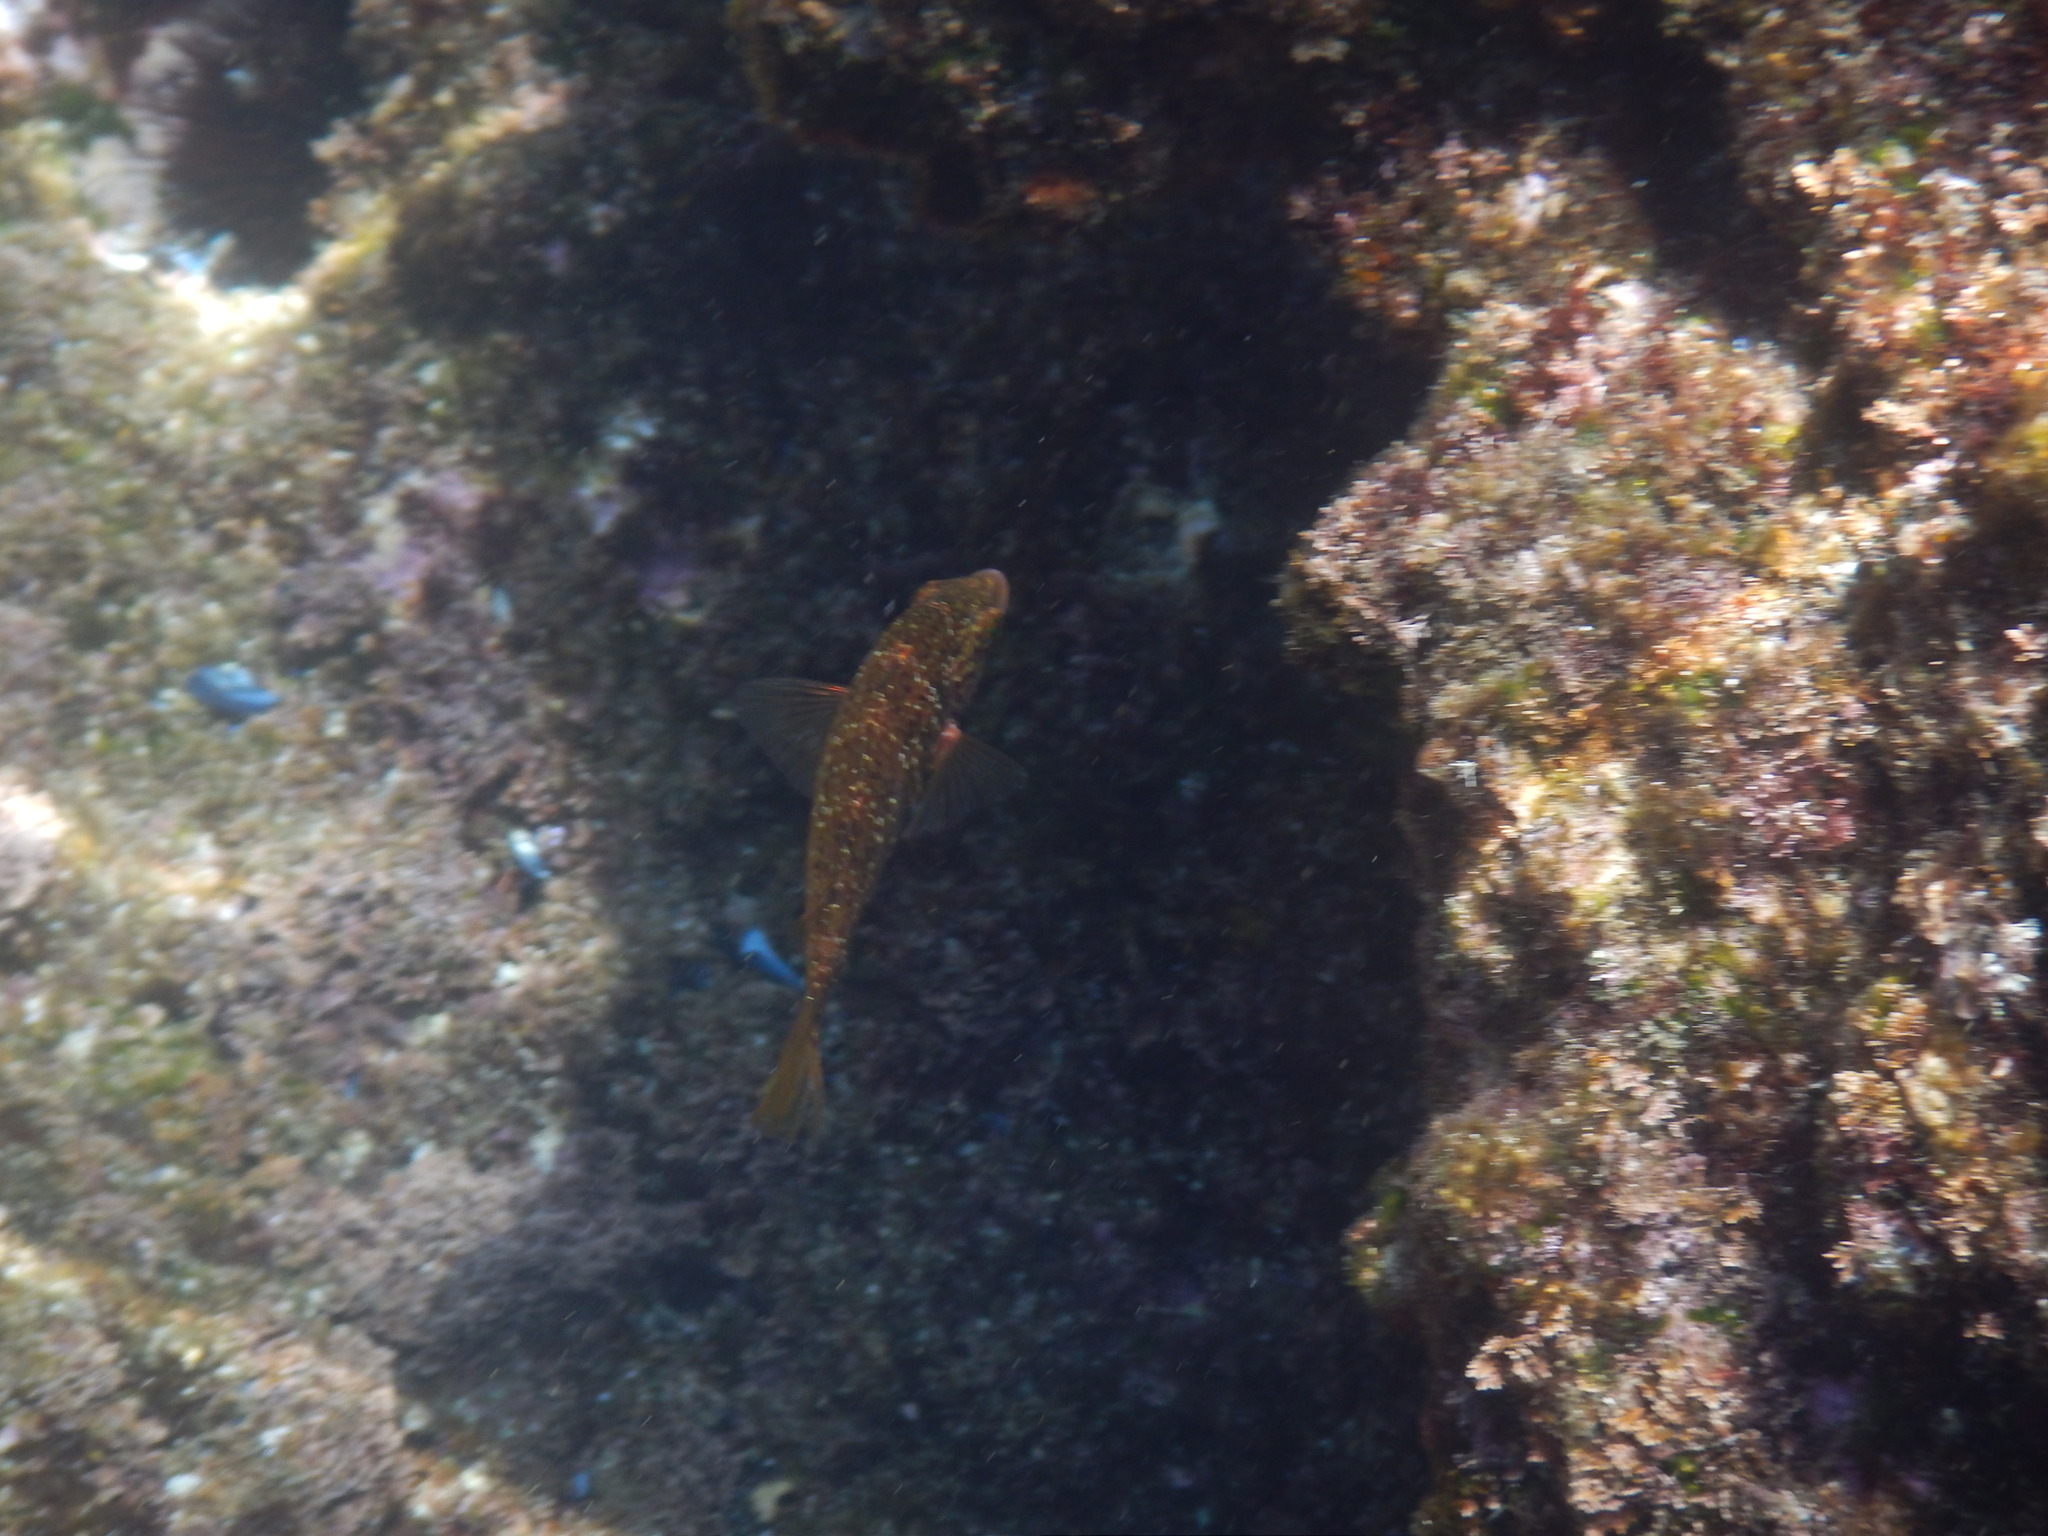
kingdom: Animalia
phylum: Chordata
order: Perciformes
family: Labridae
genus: Symphodus
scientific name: Symphodus roissali
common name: Five-spotted wrasse
